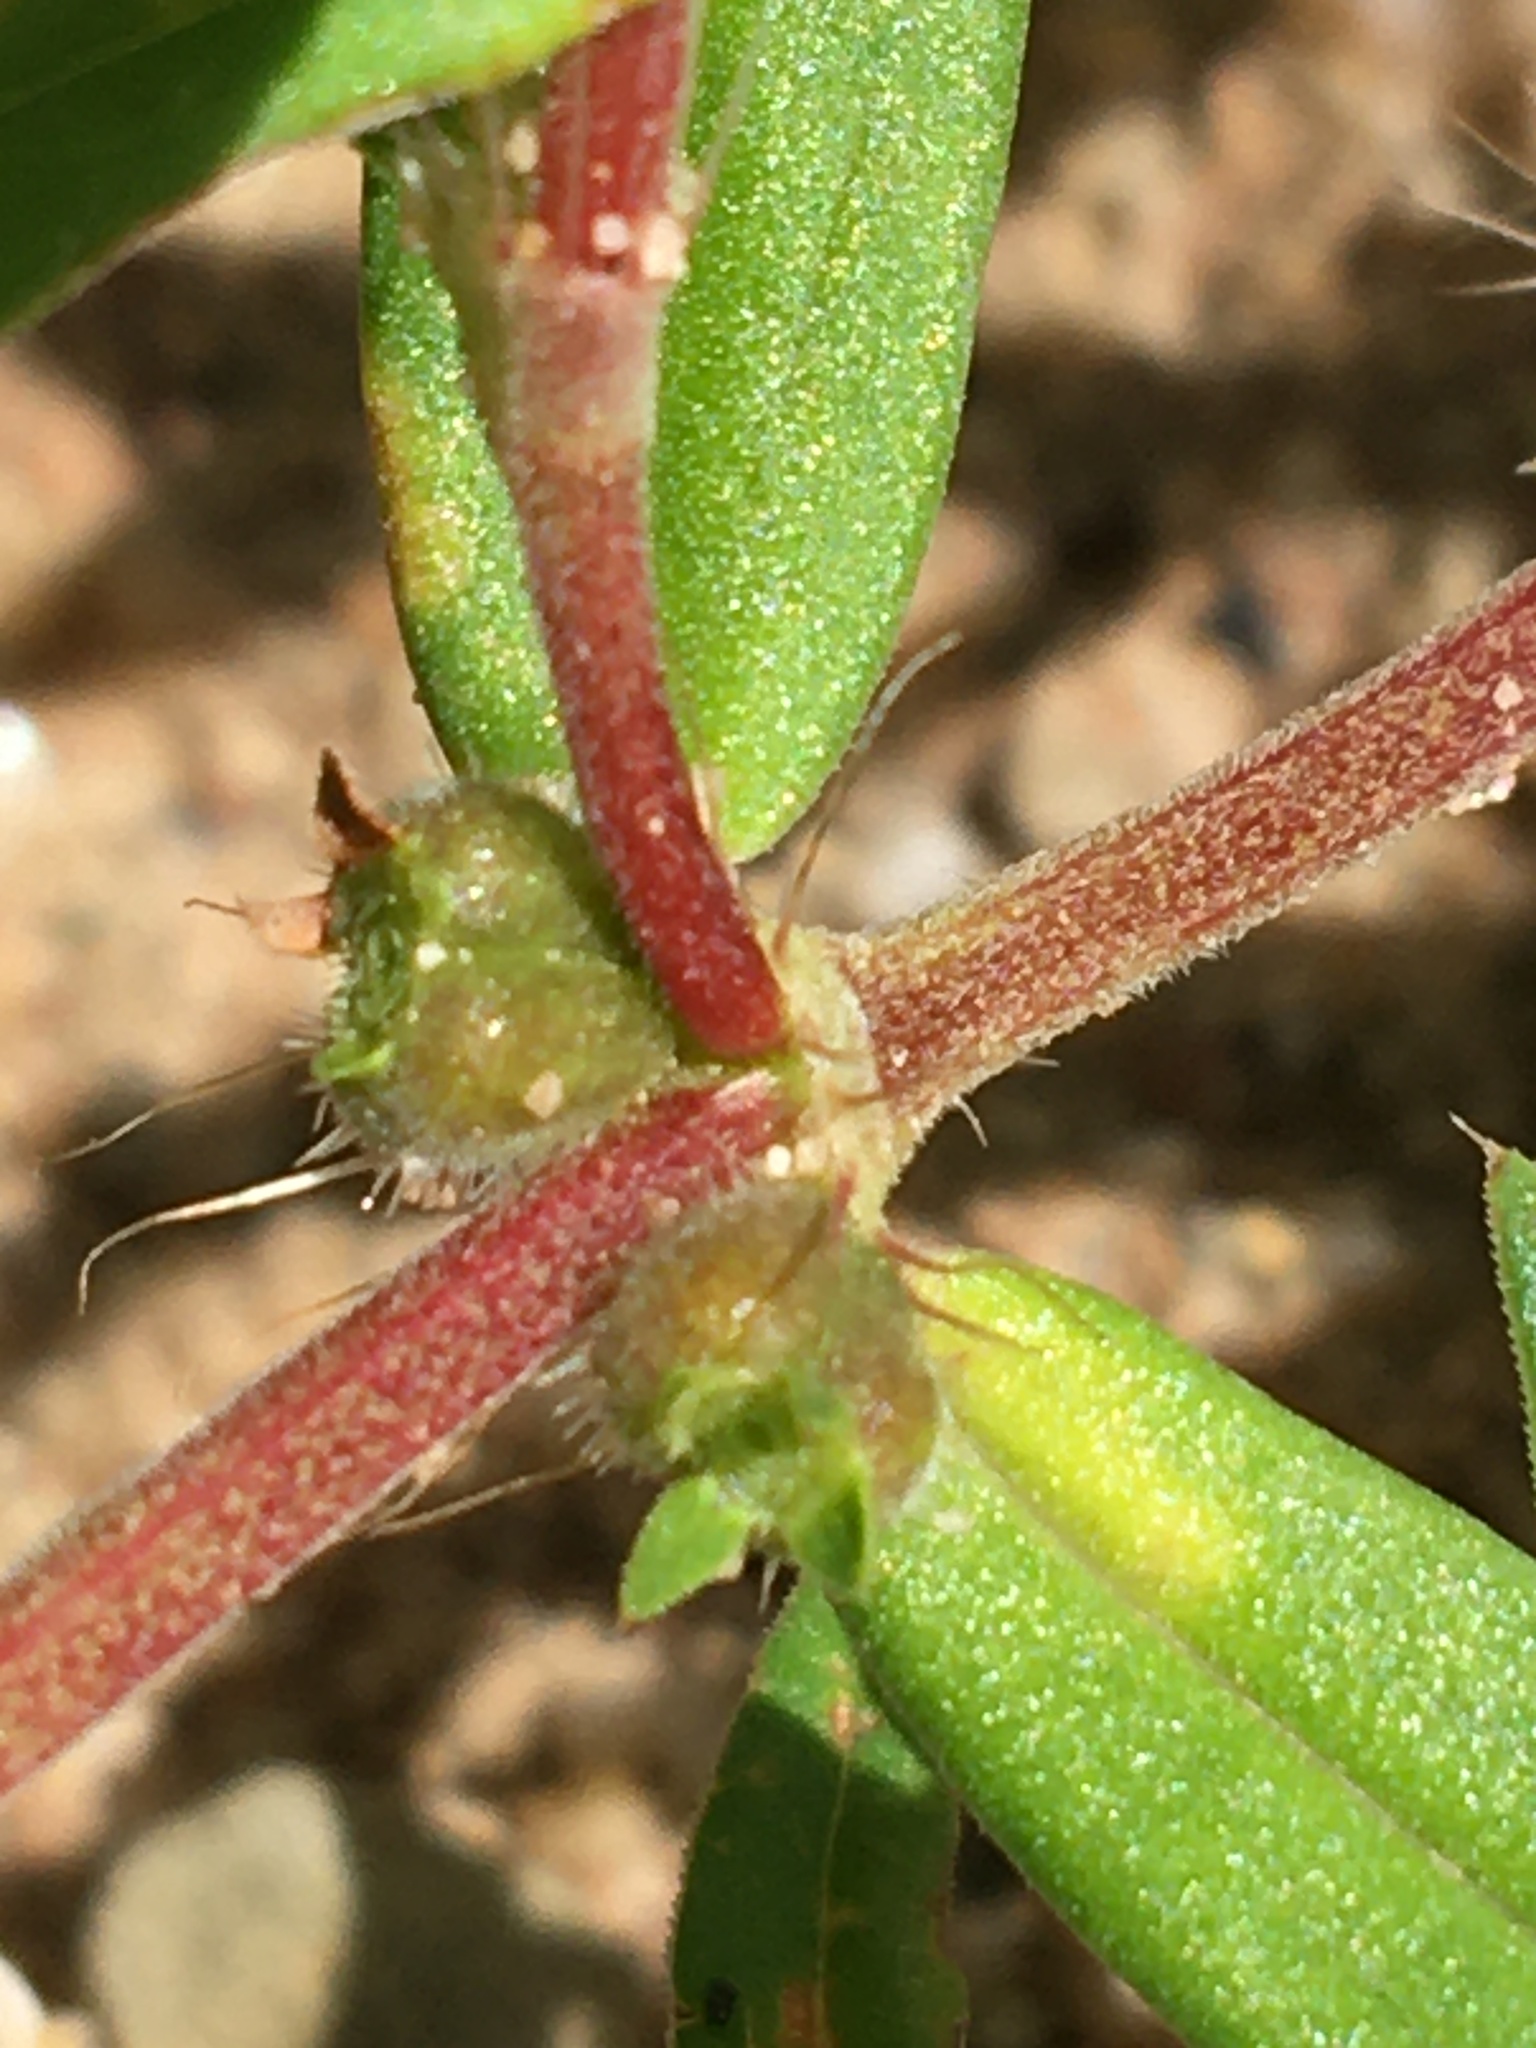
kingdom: Plantae
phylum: Tracheophyta
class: Magnoliopsida
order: Gentianales
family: Rubiaceae
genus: Hexasepalum
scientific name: Hexasepalum teres
